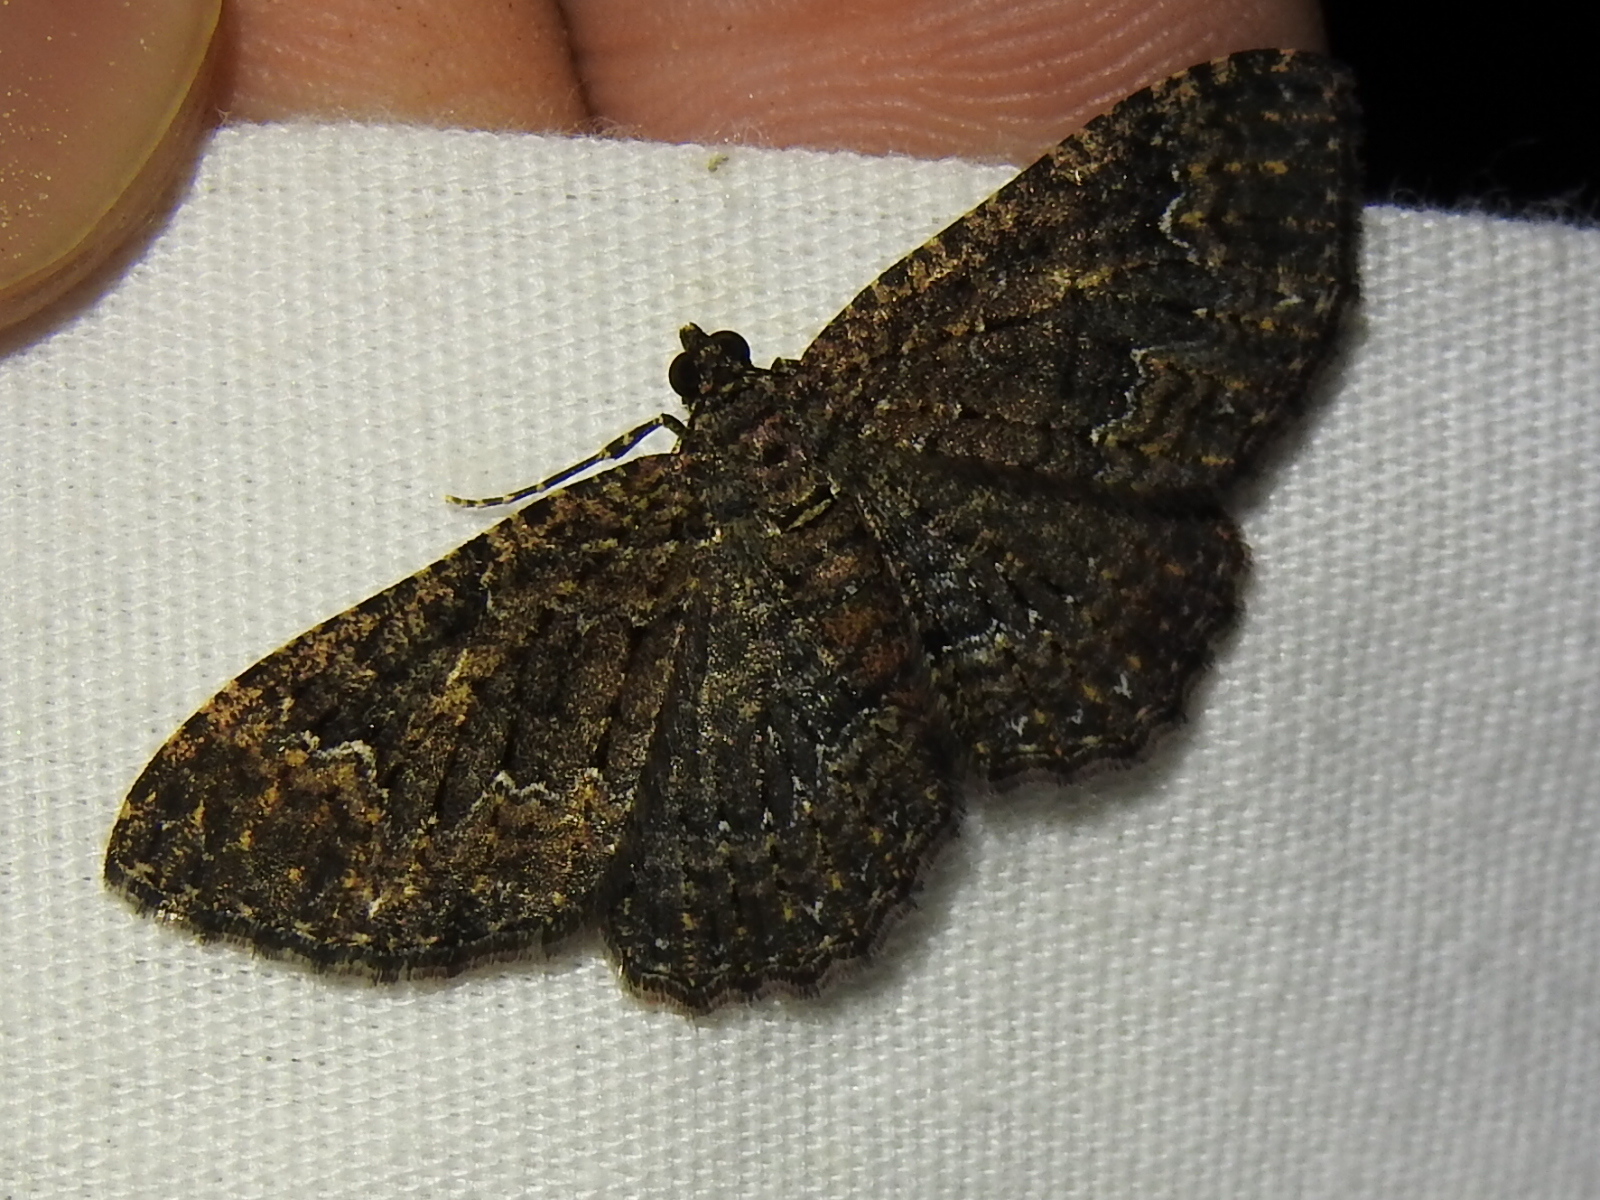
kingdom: Animalia
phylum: Arthropoda
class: Insecta
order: Lepidoptera
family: Geometridae
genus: Disclisioprocta
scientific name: Disclisioprocta stellata
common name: Somber carpet
